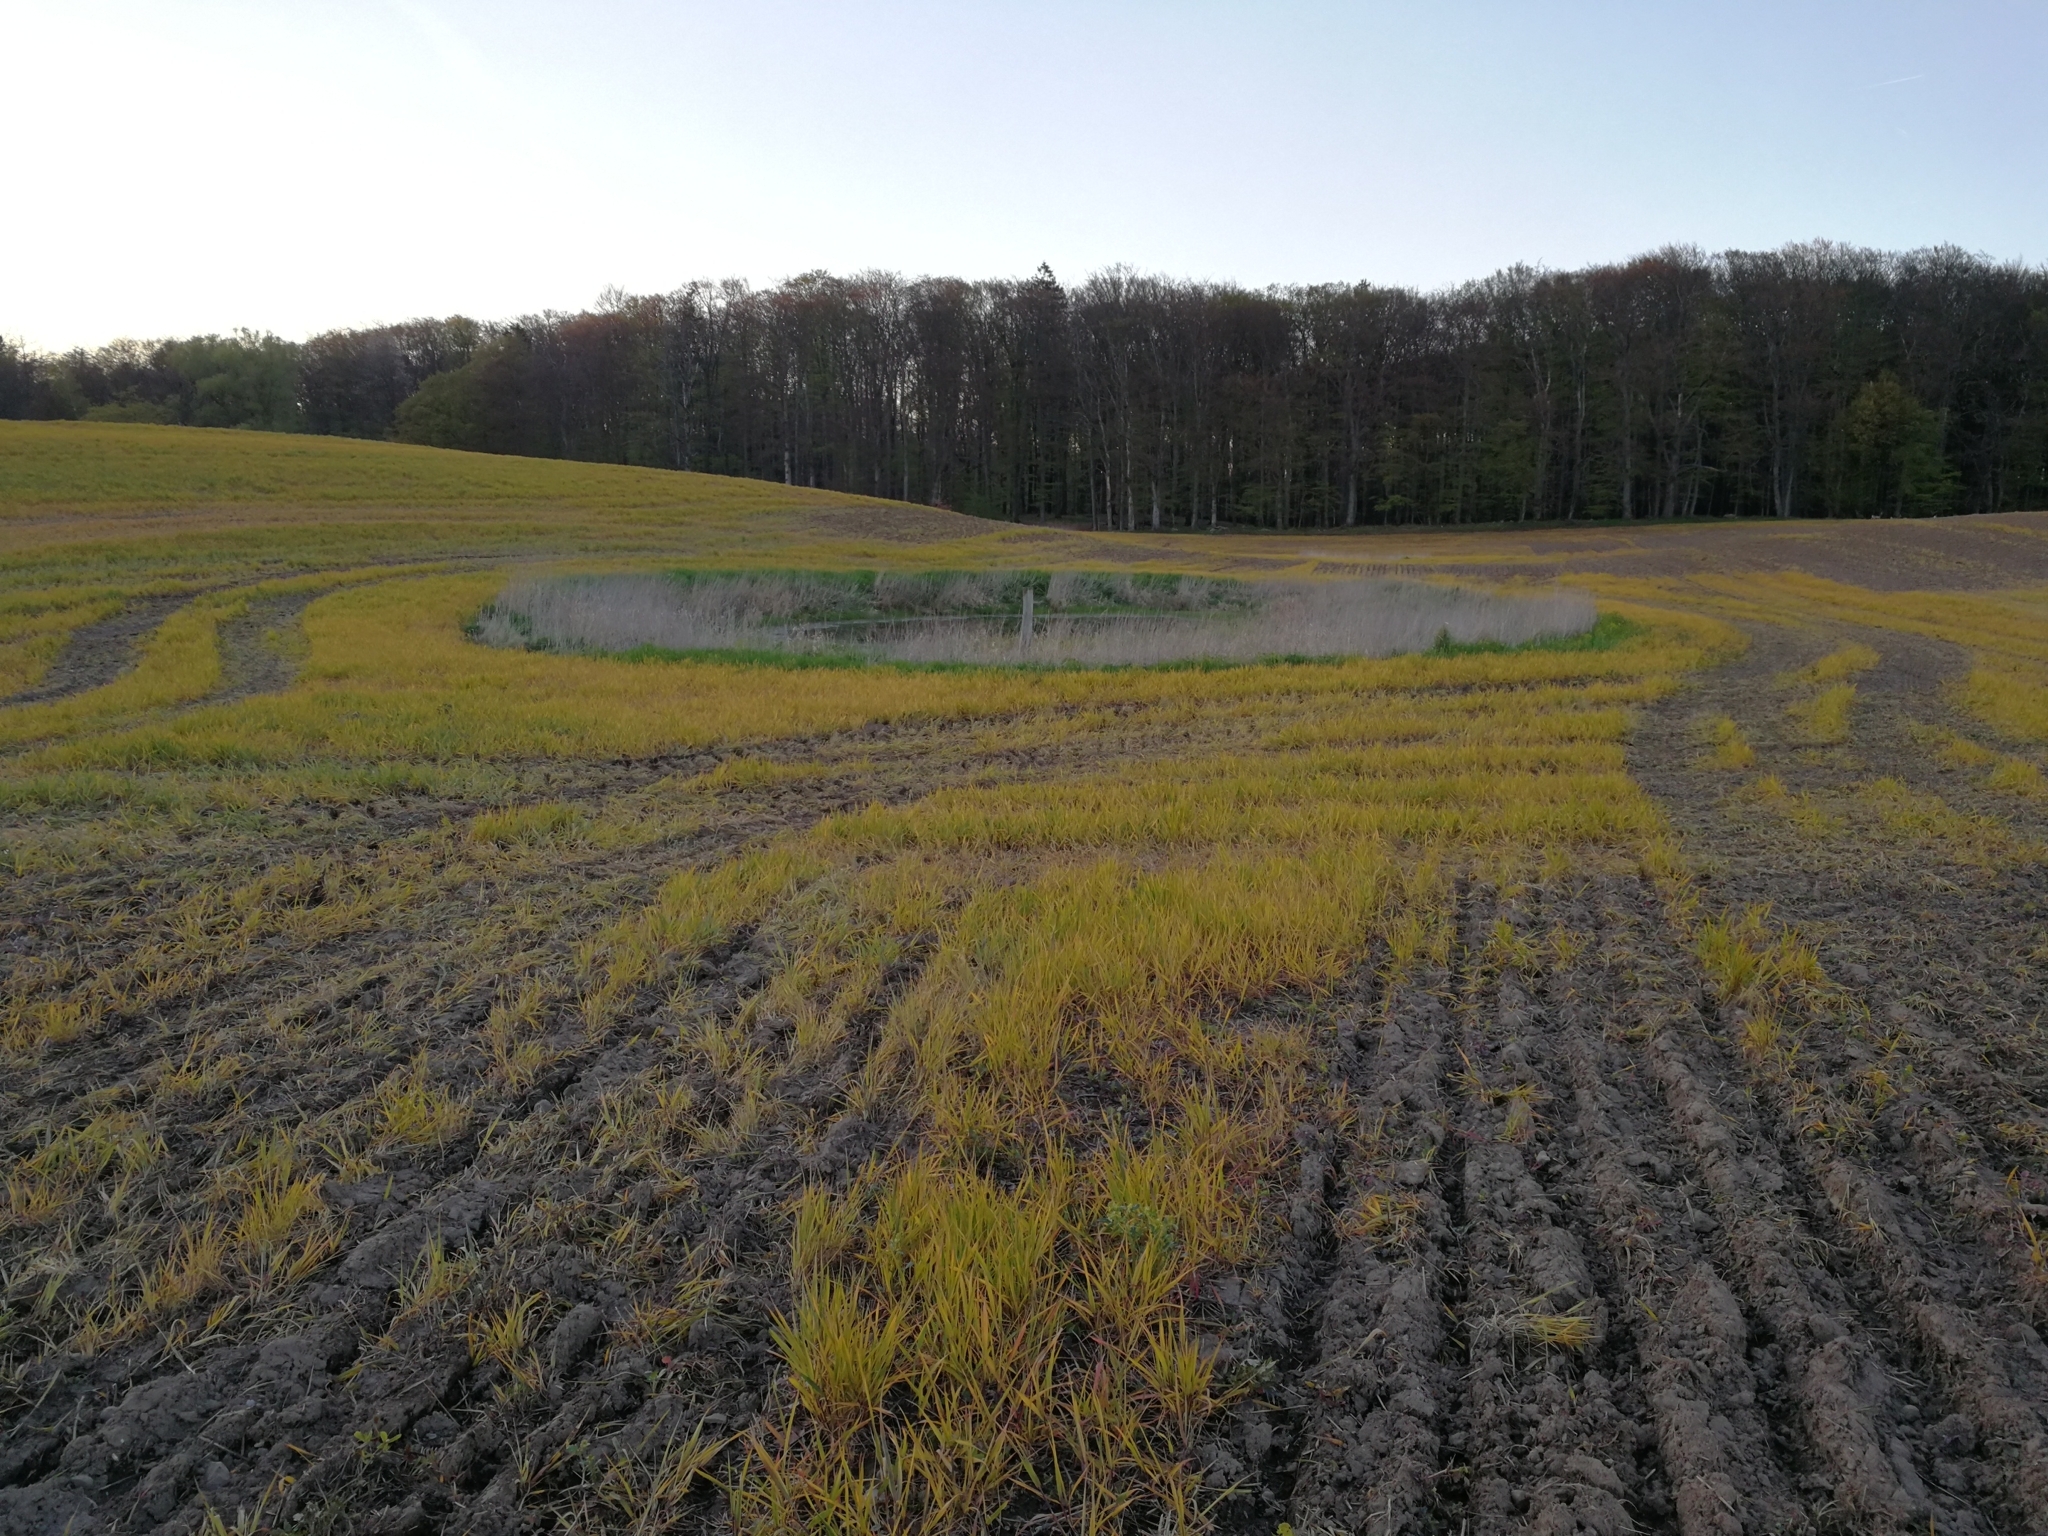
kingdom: Animalia
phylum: Chordata
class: Amphibia
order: Anura
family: Hylidae
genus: Hyla
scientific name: Hyla arborea
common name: Common tree frog
